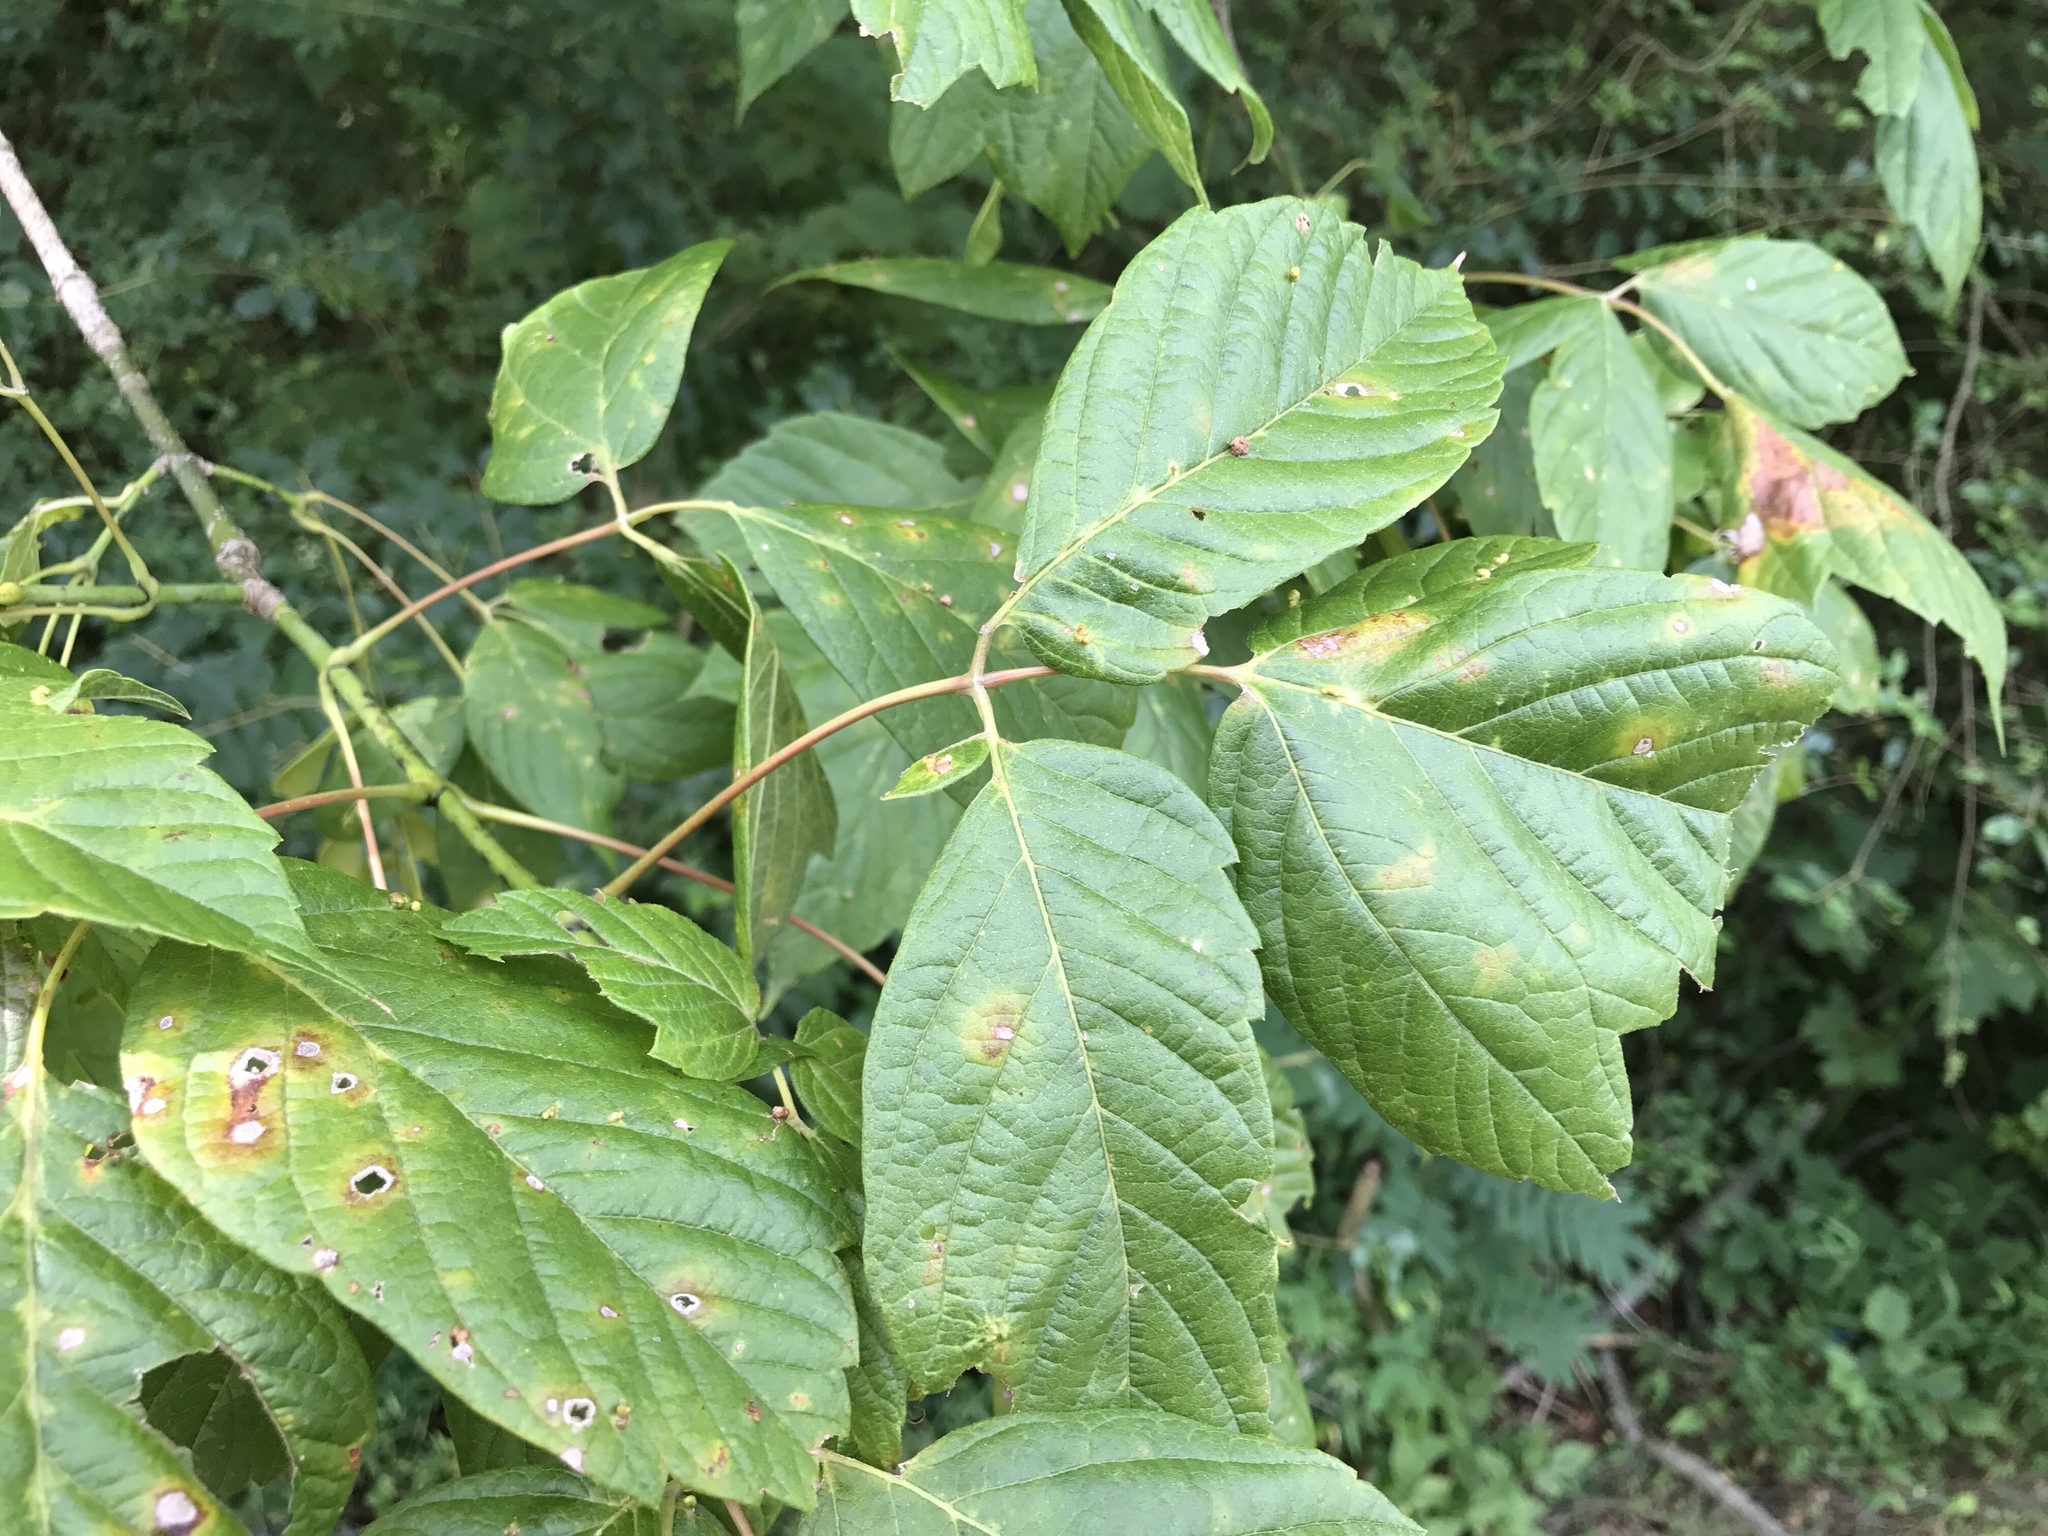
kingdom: Plantae
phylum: Tracheophyta
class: Magnoliopsida
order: Sapindales
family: Sapindaceae
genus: Acer
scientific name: Acer negundo
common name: Ashleaf maple
